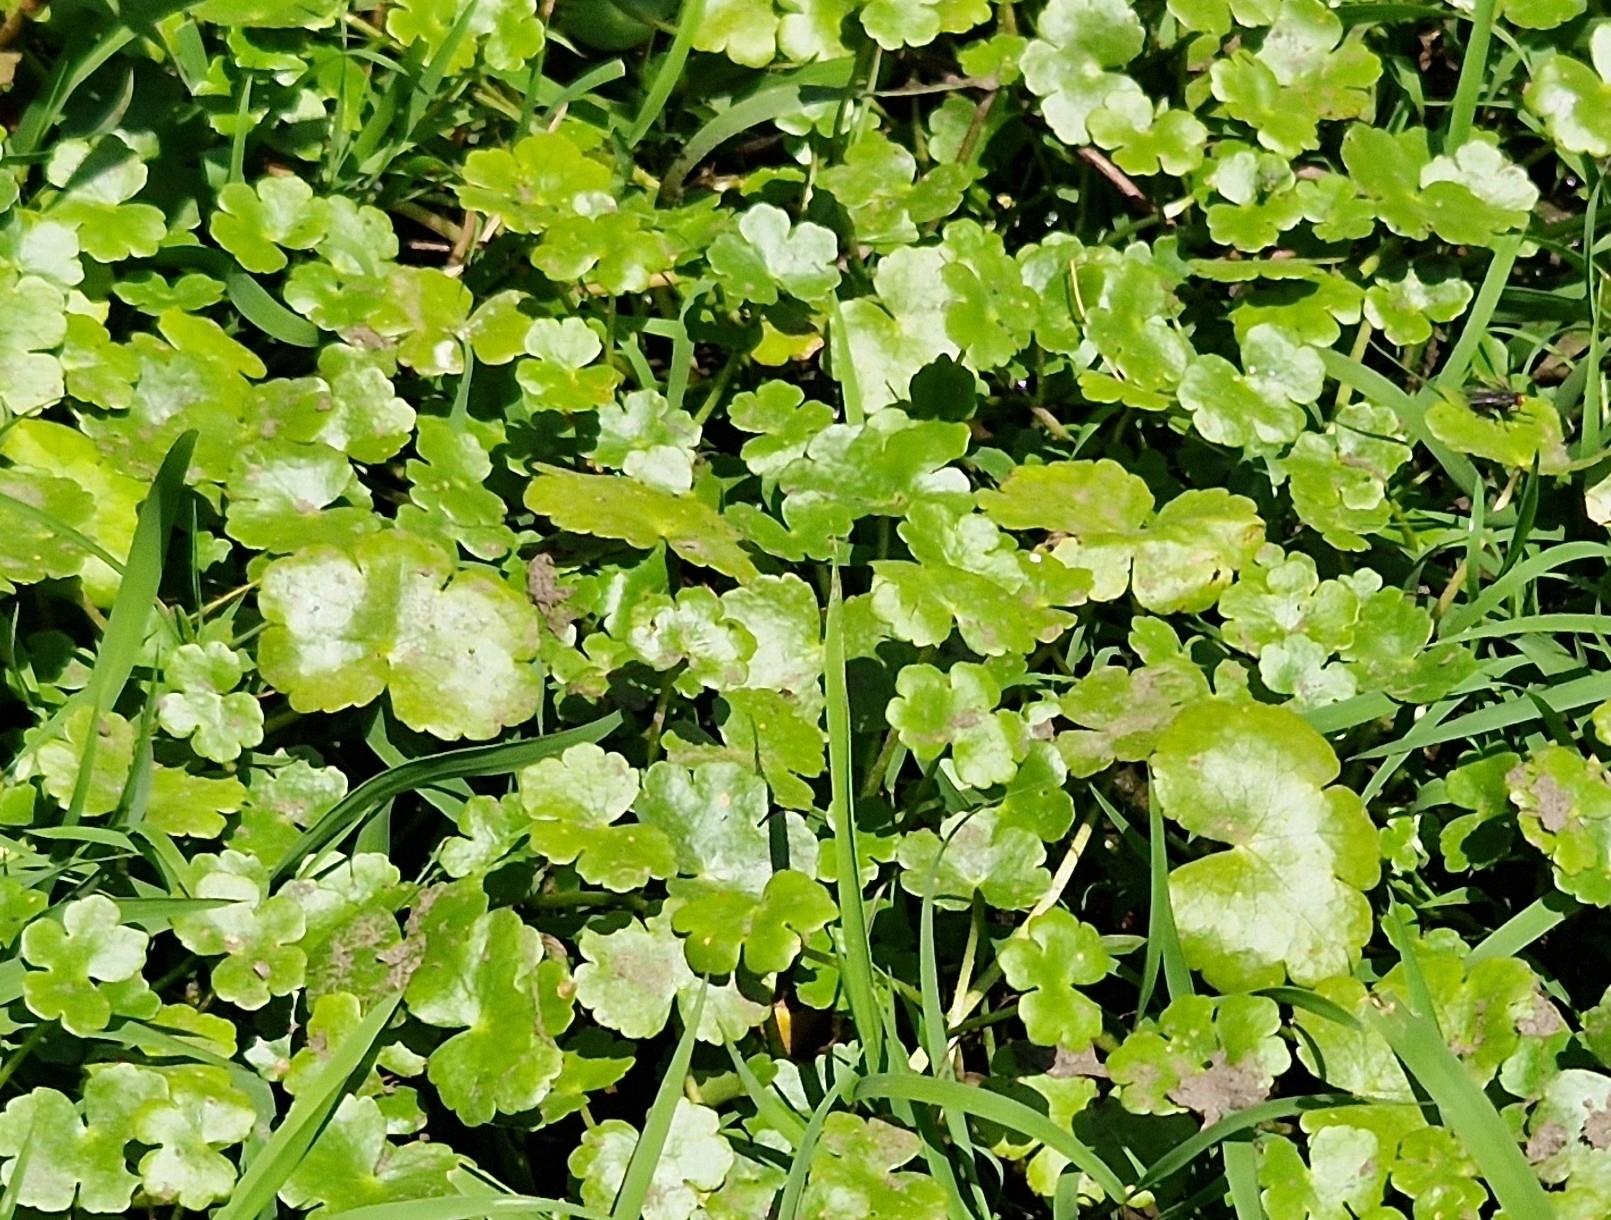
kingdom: Plantae
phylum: Tracheophyta
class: Magnoliopsida
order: Apiales
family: Araliaceae
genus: Hydrocotyle
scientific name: Hydrocotyle ranunculoides
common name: Floating pennywort
